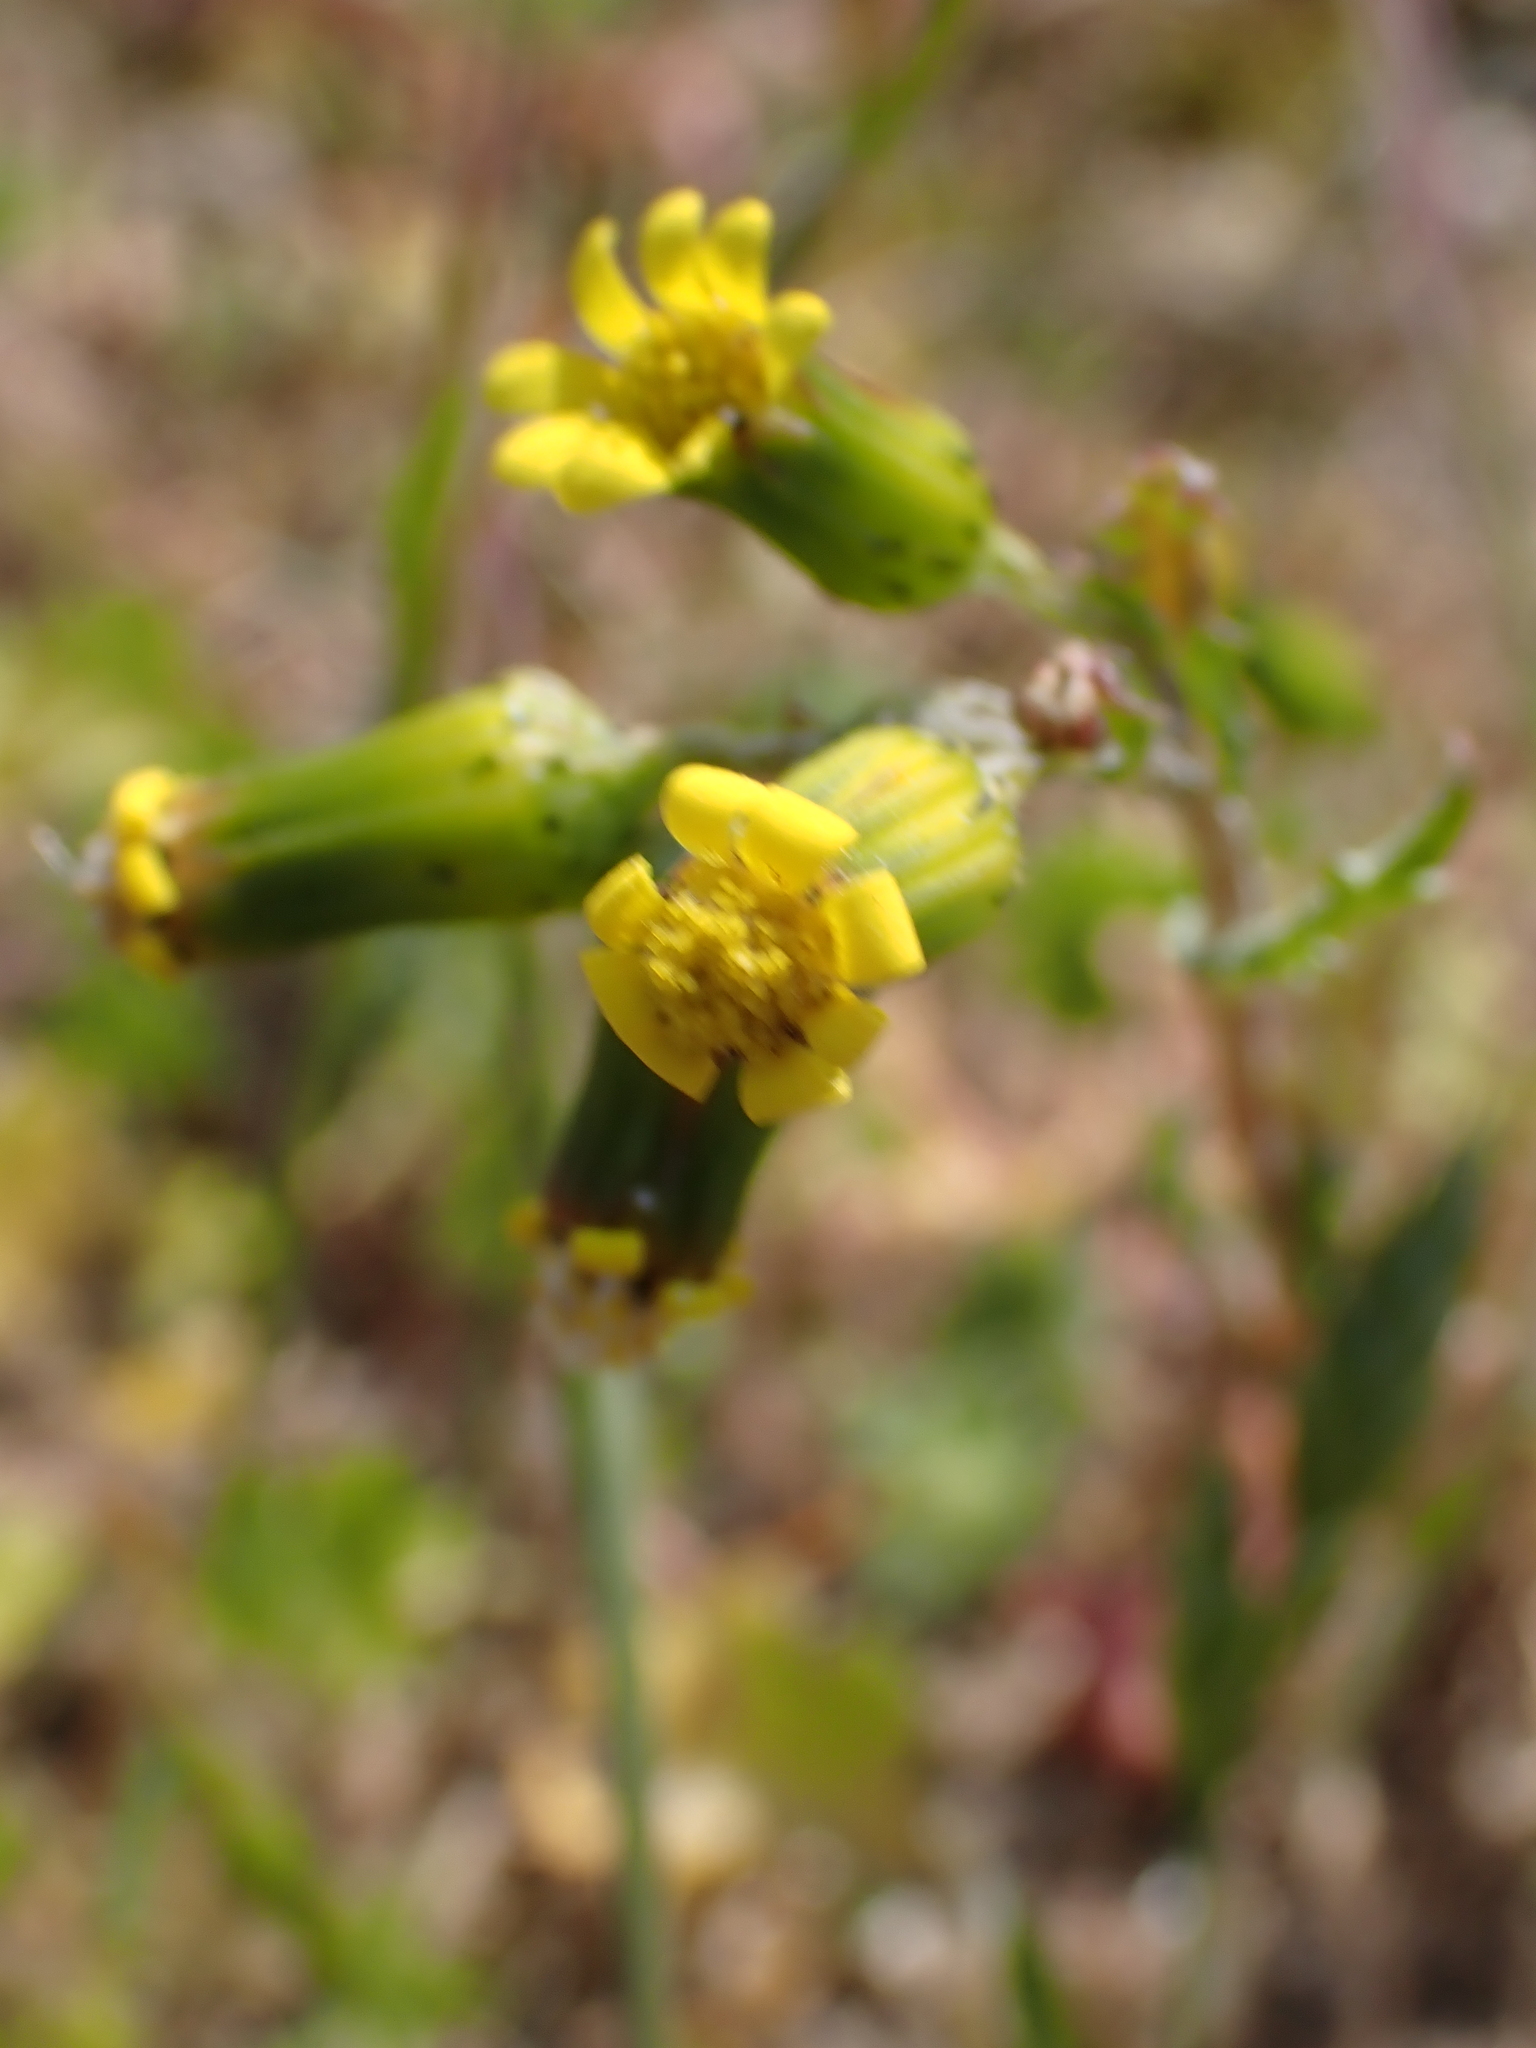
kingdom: Plantae
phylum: Tracheophyta
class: Magnoliopsida
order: Asterales
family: Asteraceae
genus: Senecio
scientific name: Senecio vulgaris
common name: Old-man-in-the-spring
